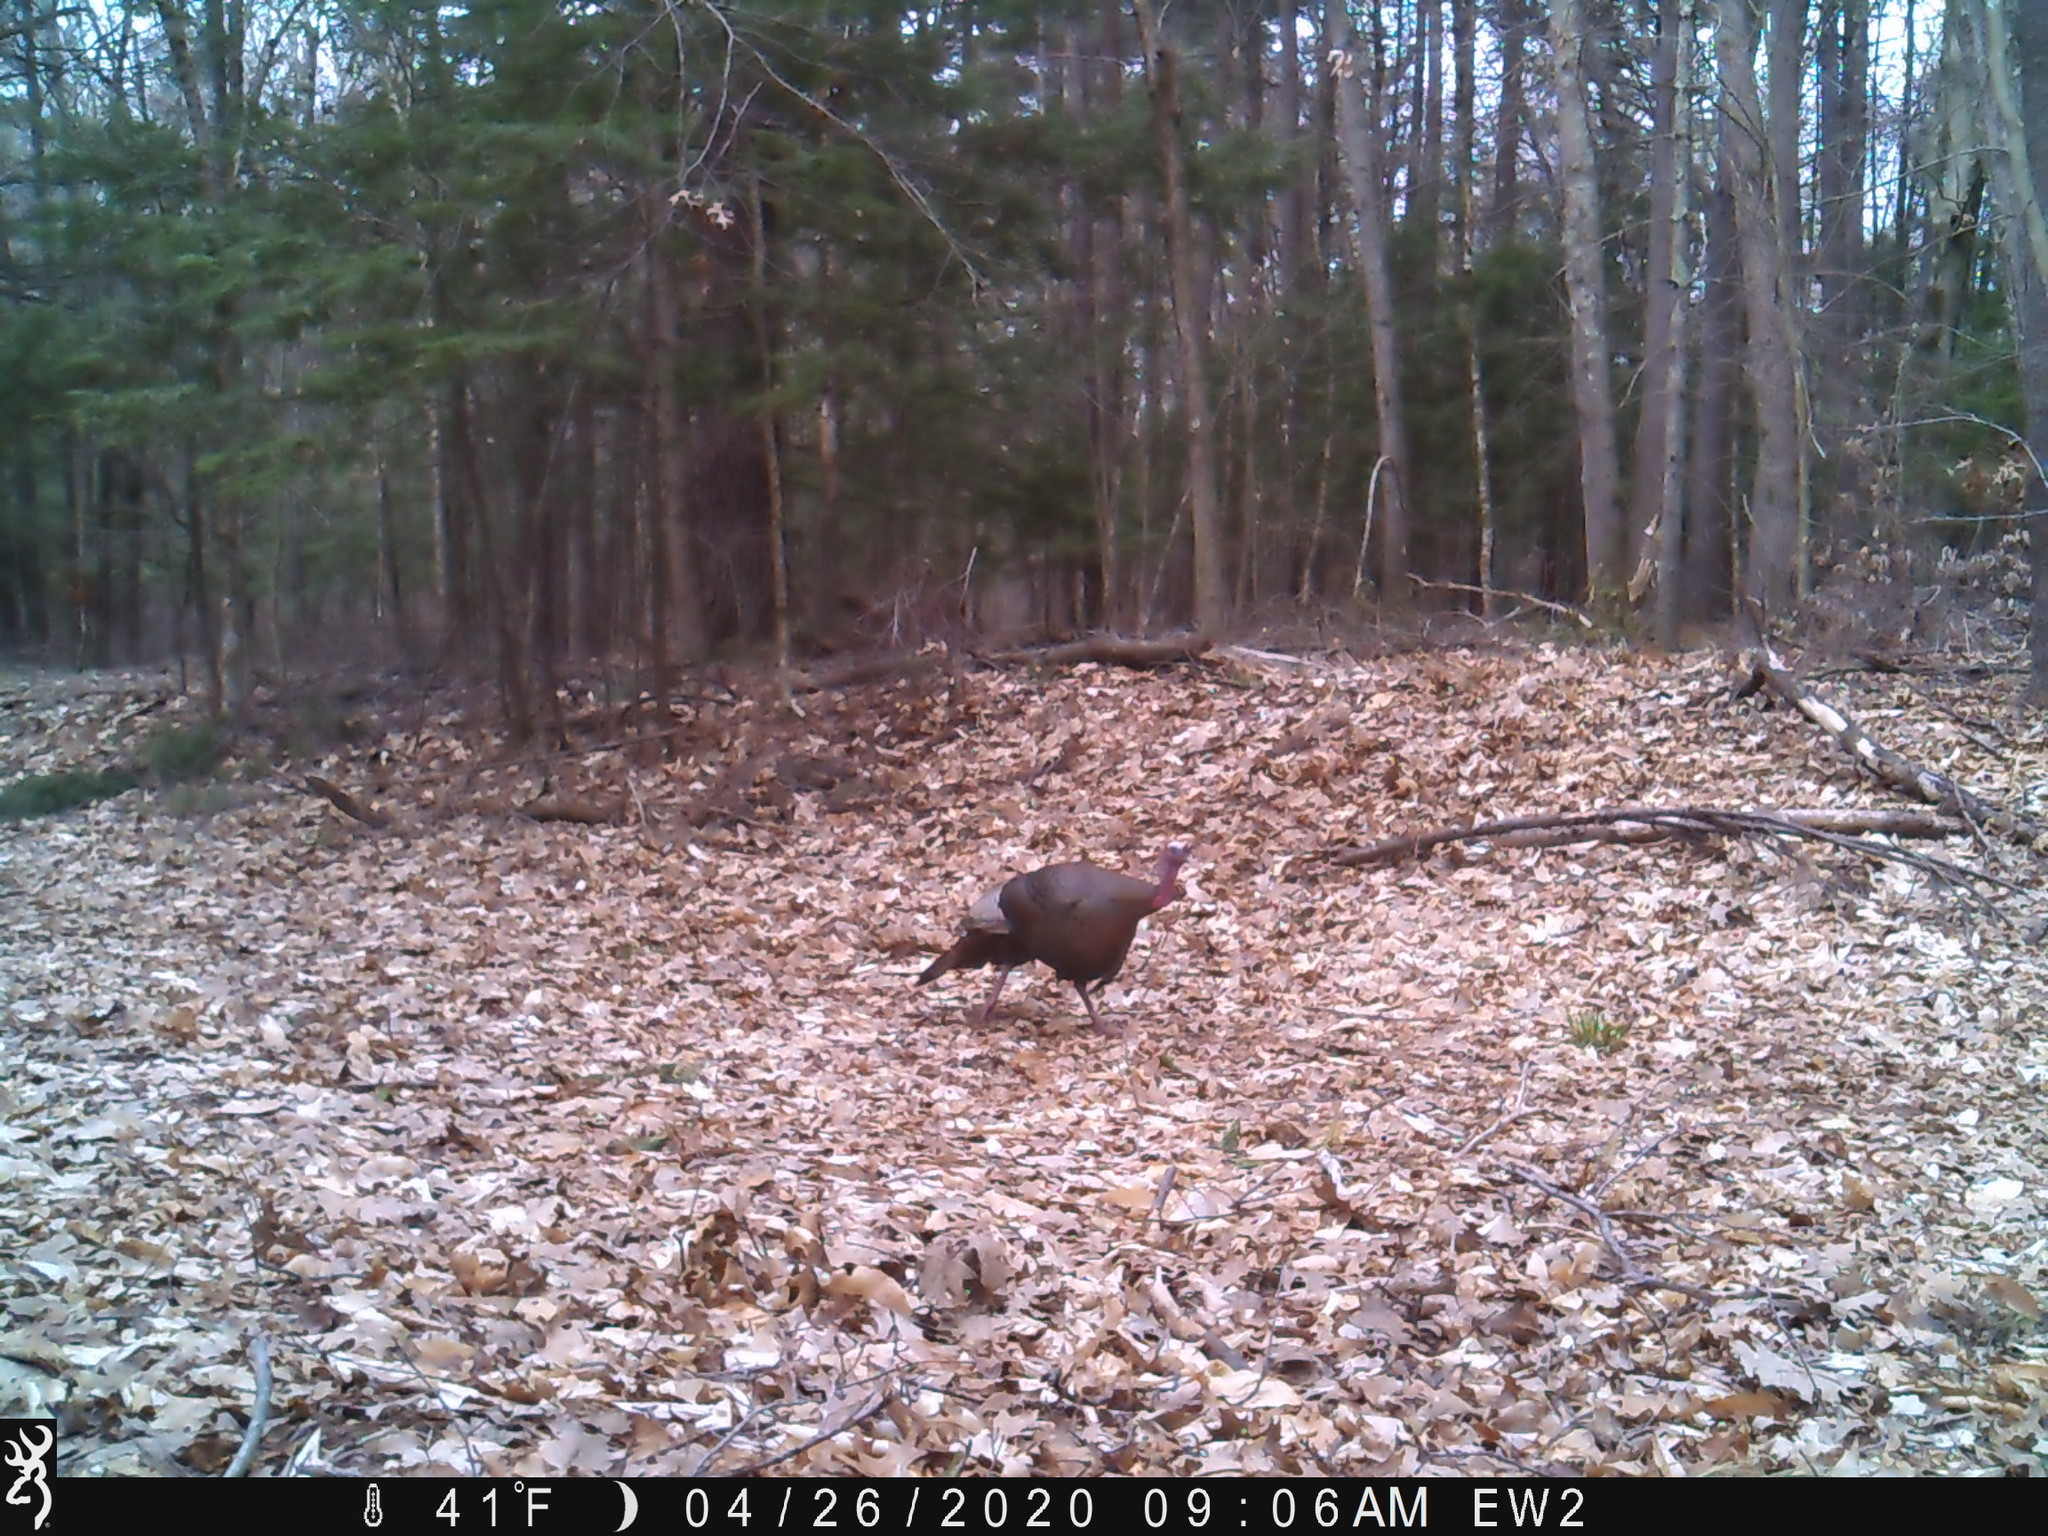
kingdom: Animalia
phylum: Chordata
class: Aves
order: Galliformes
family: Phasianidae
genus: Meleagris
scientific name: Meleagris gallopavo
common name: Wild turkey
